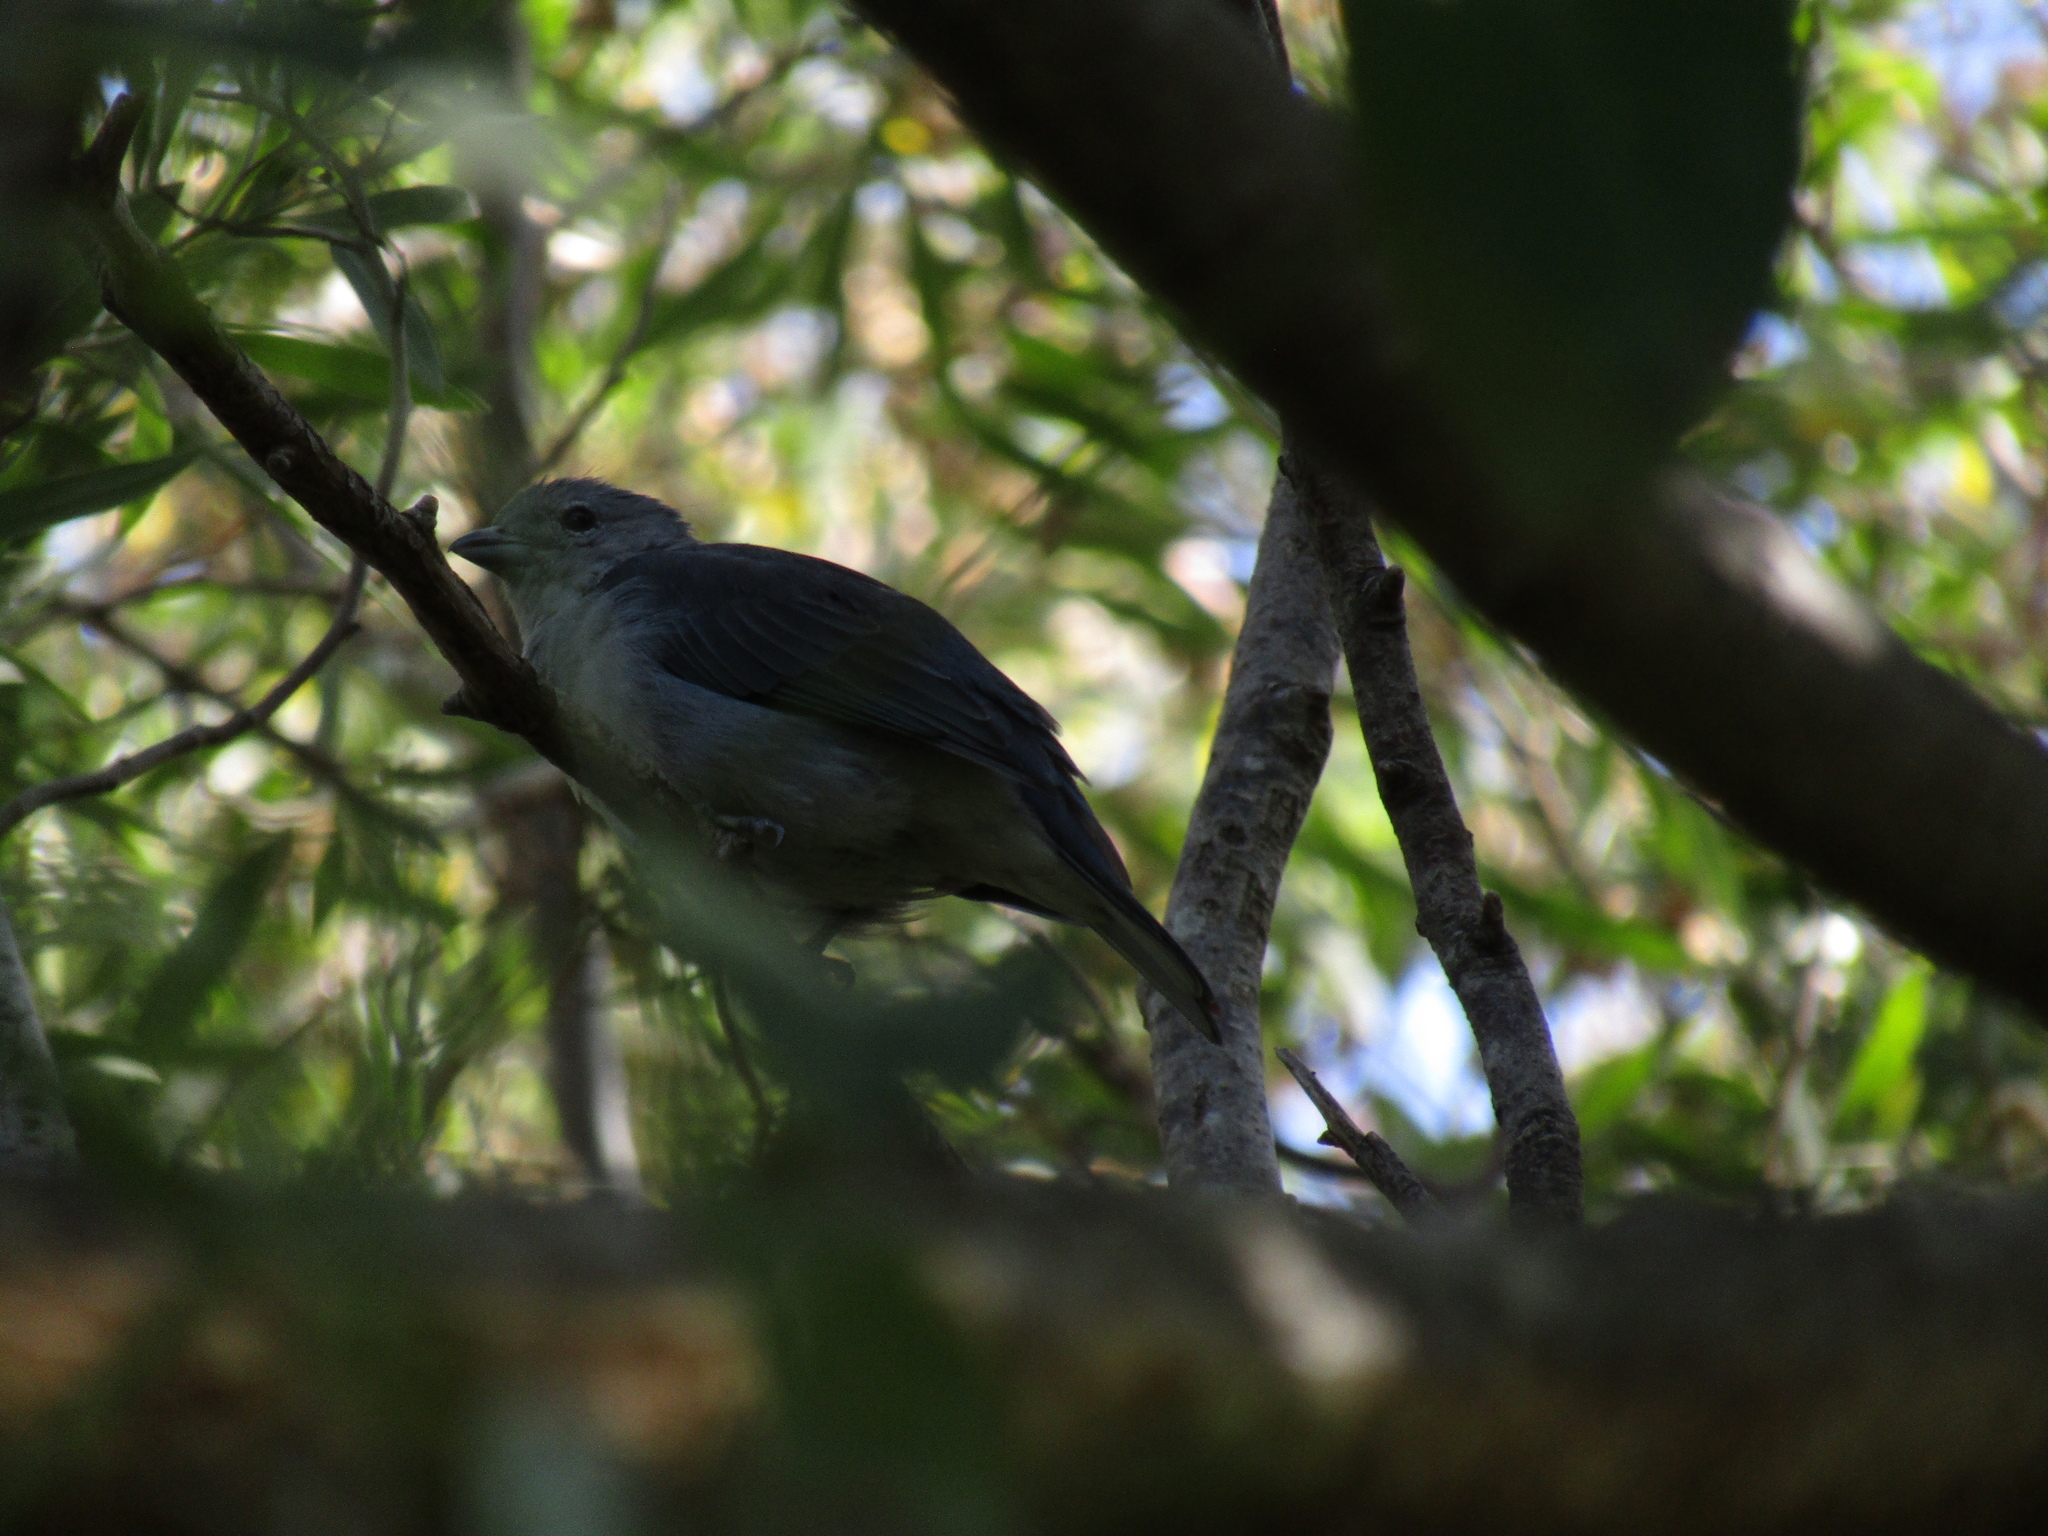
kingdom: Animalia
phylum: Chordata
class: Aves
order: Passeriformes
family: Thraupidae
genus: Thraupis
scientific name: Thraupis sayaca
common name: Sayaca tanager
